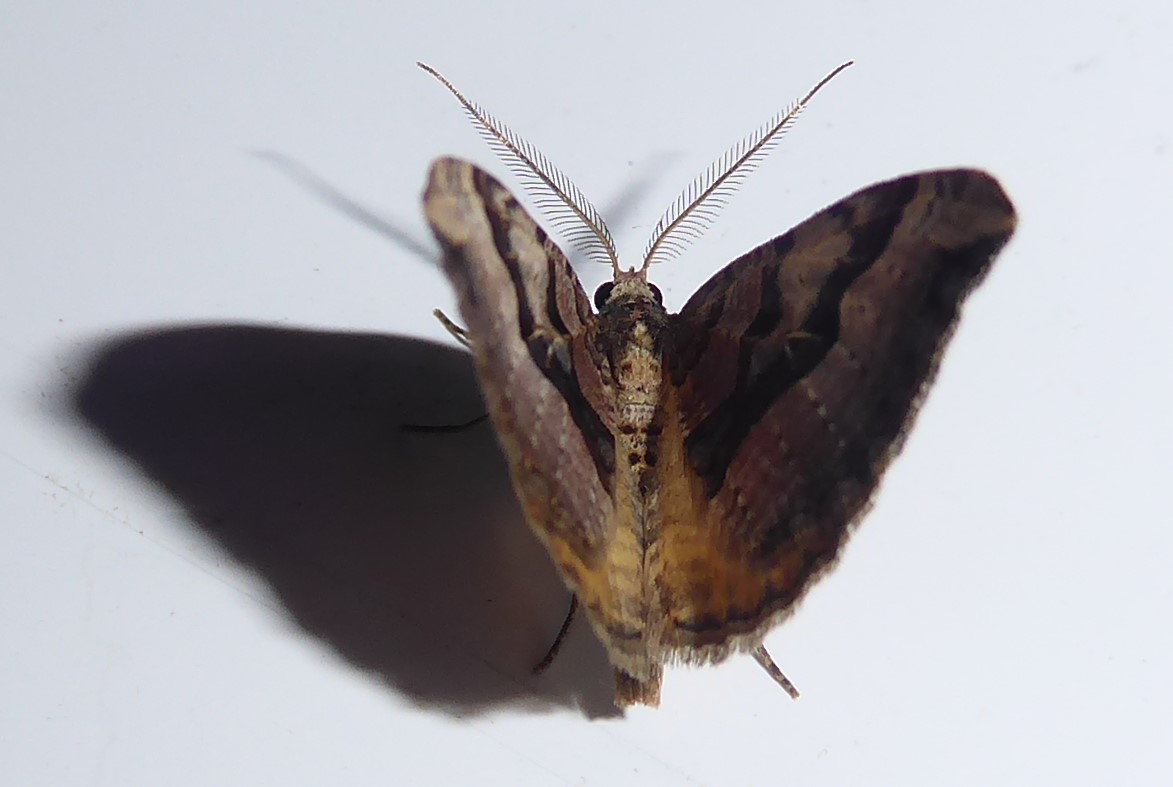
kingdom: Animalia
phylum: Arthropoda
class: Insecta
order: Lepidoptera
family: Geometridae
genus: Xanthorhoe
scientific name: Xanthorhoe semifissata
